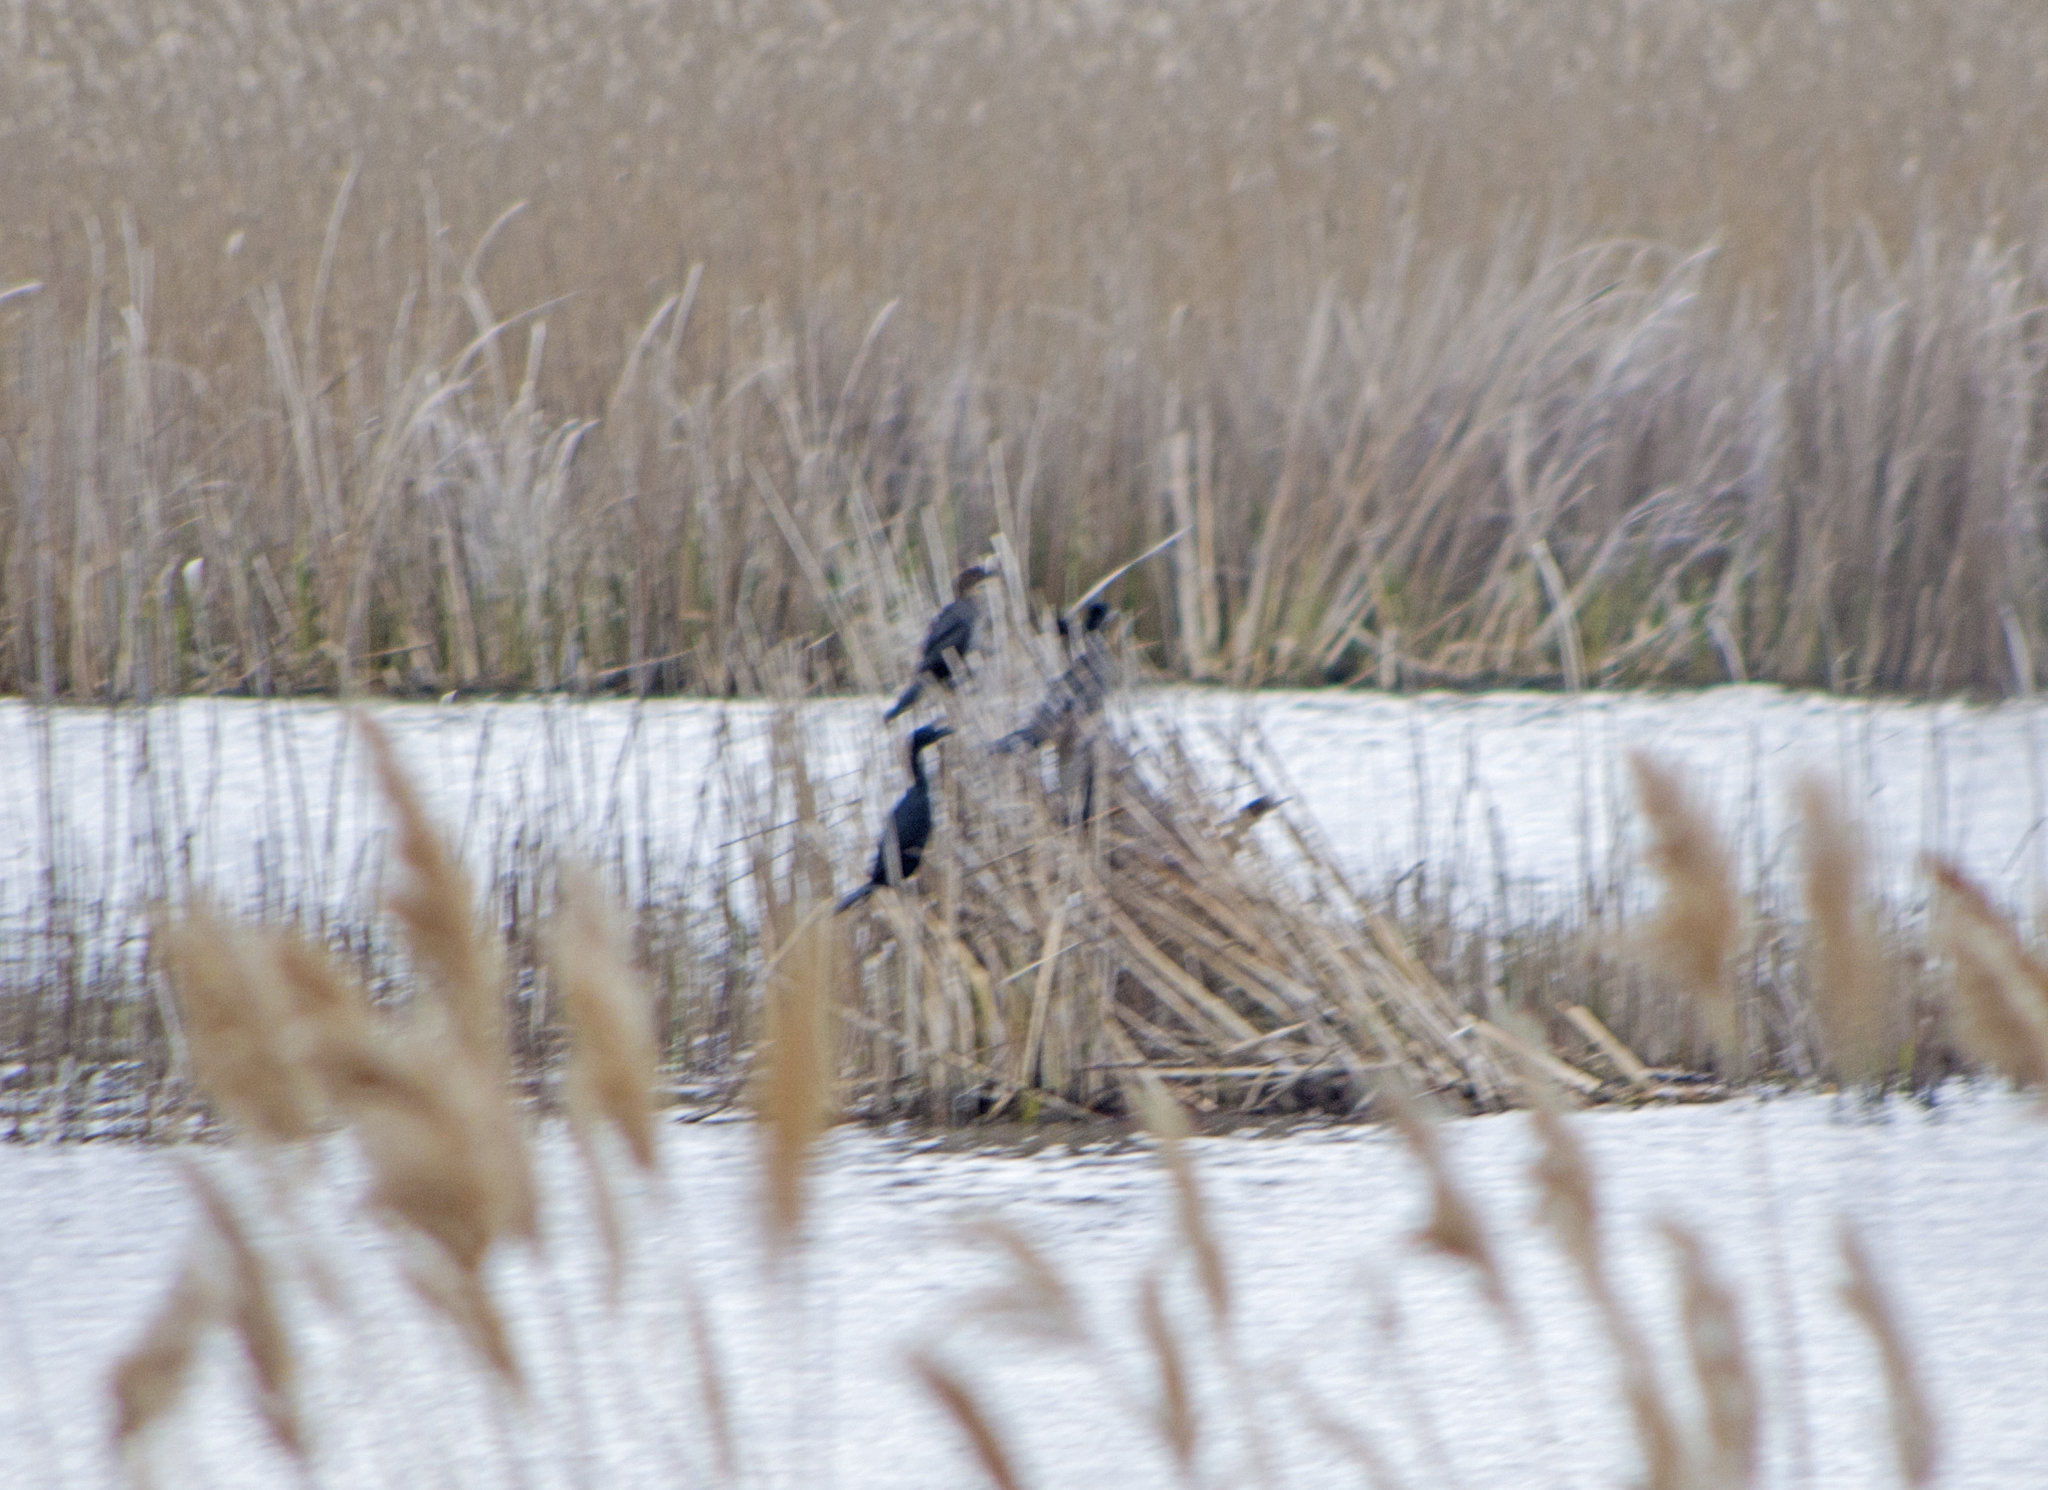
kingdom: Animalia
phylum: Chordata
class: Aves
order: Suliformes
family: Phalacrocoracidae
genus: Microcarbo
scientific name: Microcarbo pygmaeus
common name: Pygmy cormorant
